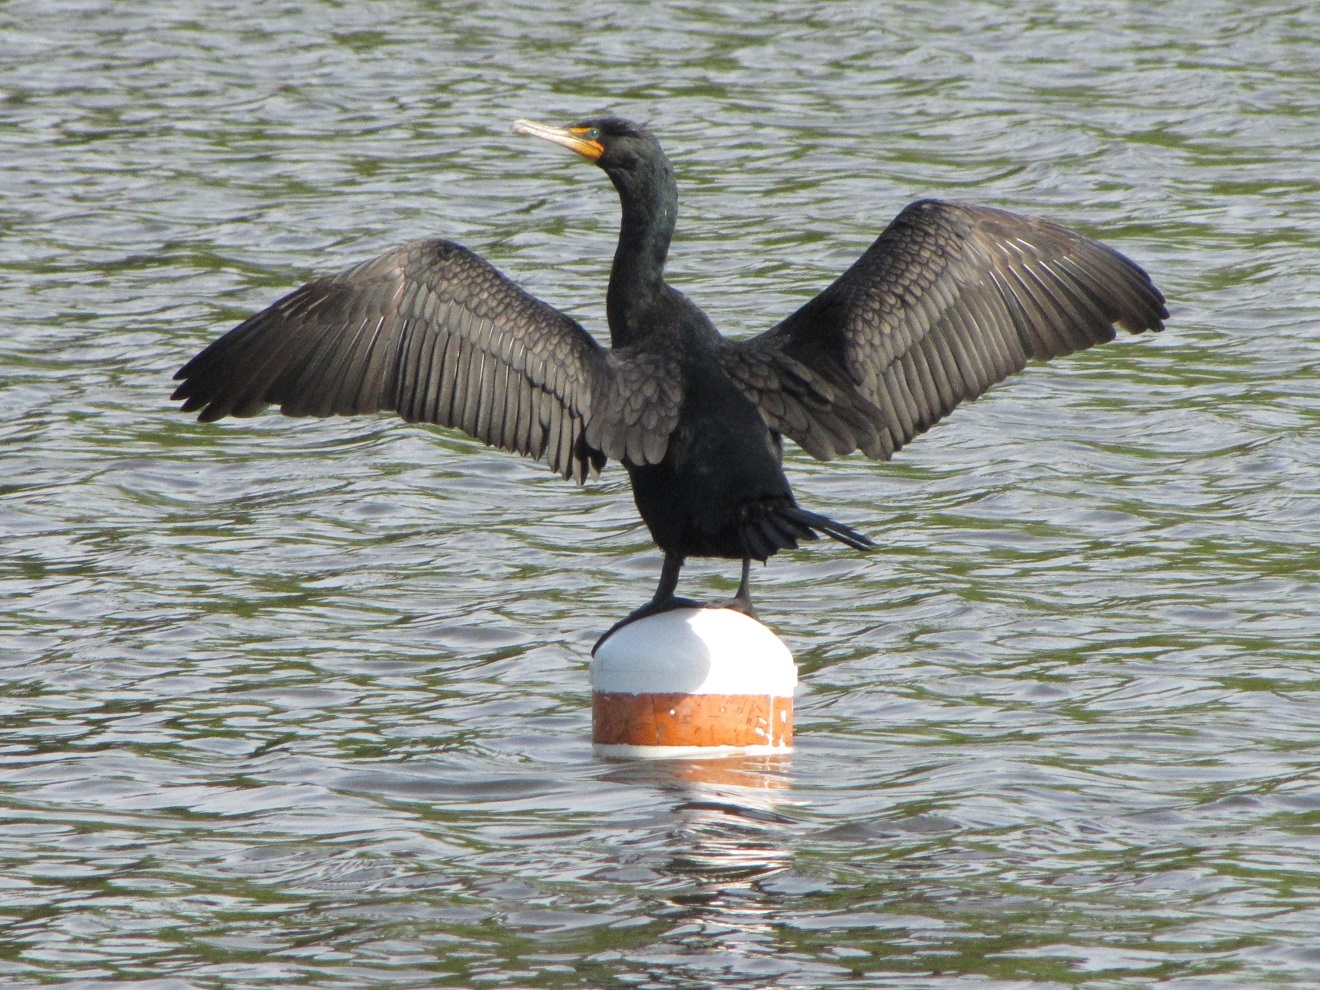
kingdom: Animalia
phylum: Chordata
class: Aves
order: Suliformes
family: Phalacrocoracidae
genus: Phalacrocorax
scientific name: Phalacrocorax auritus
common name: Double-crested cormorant
